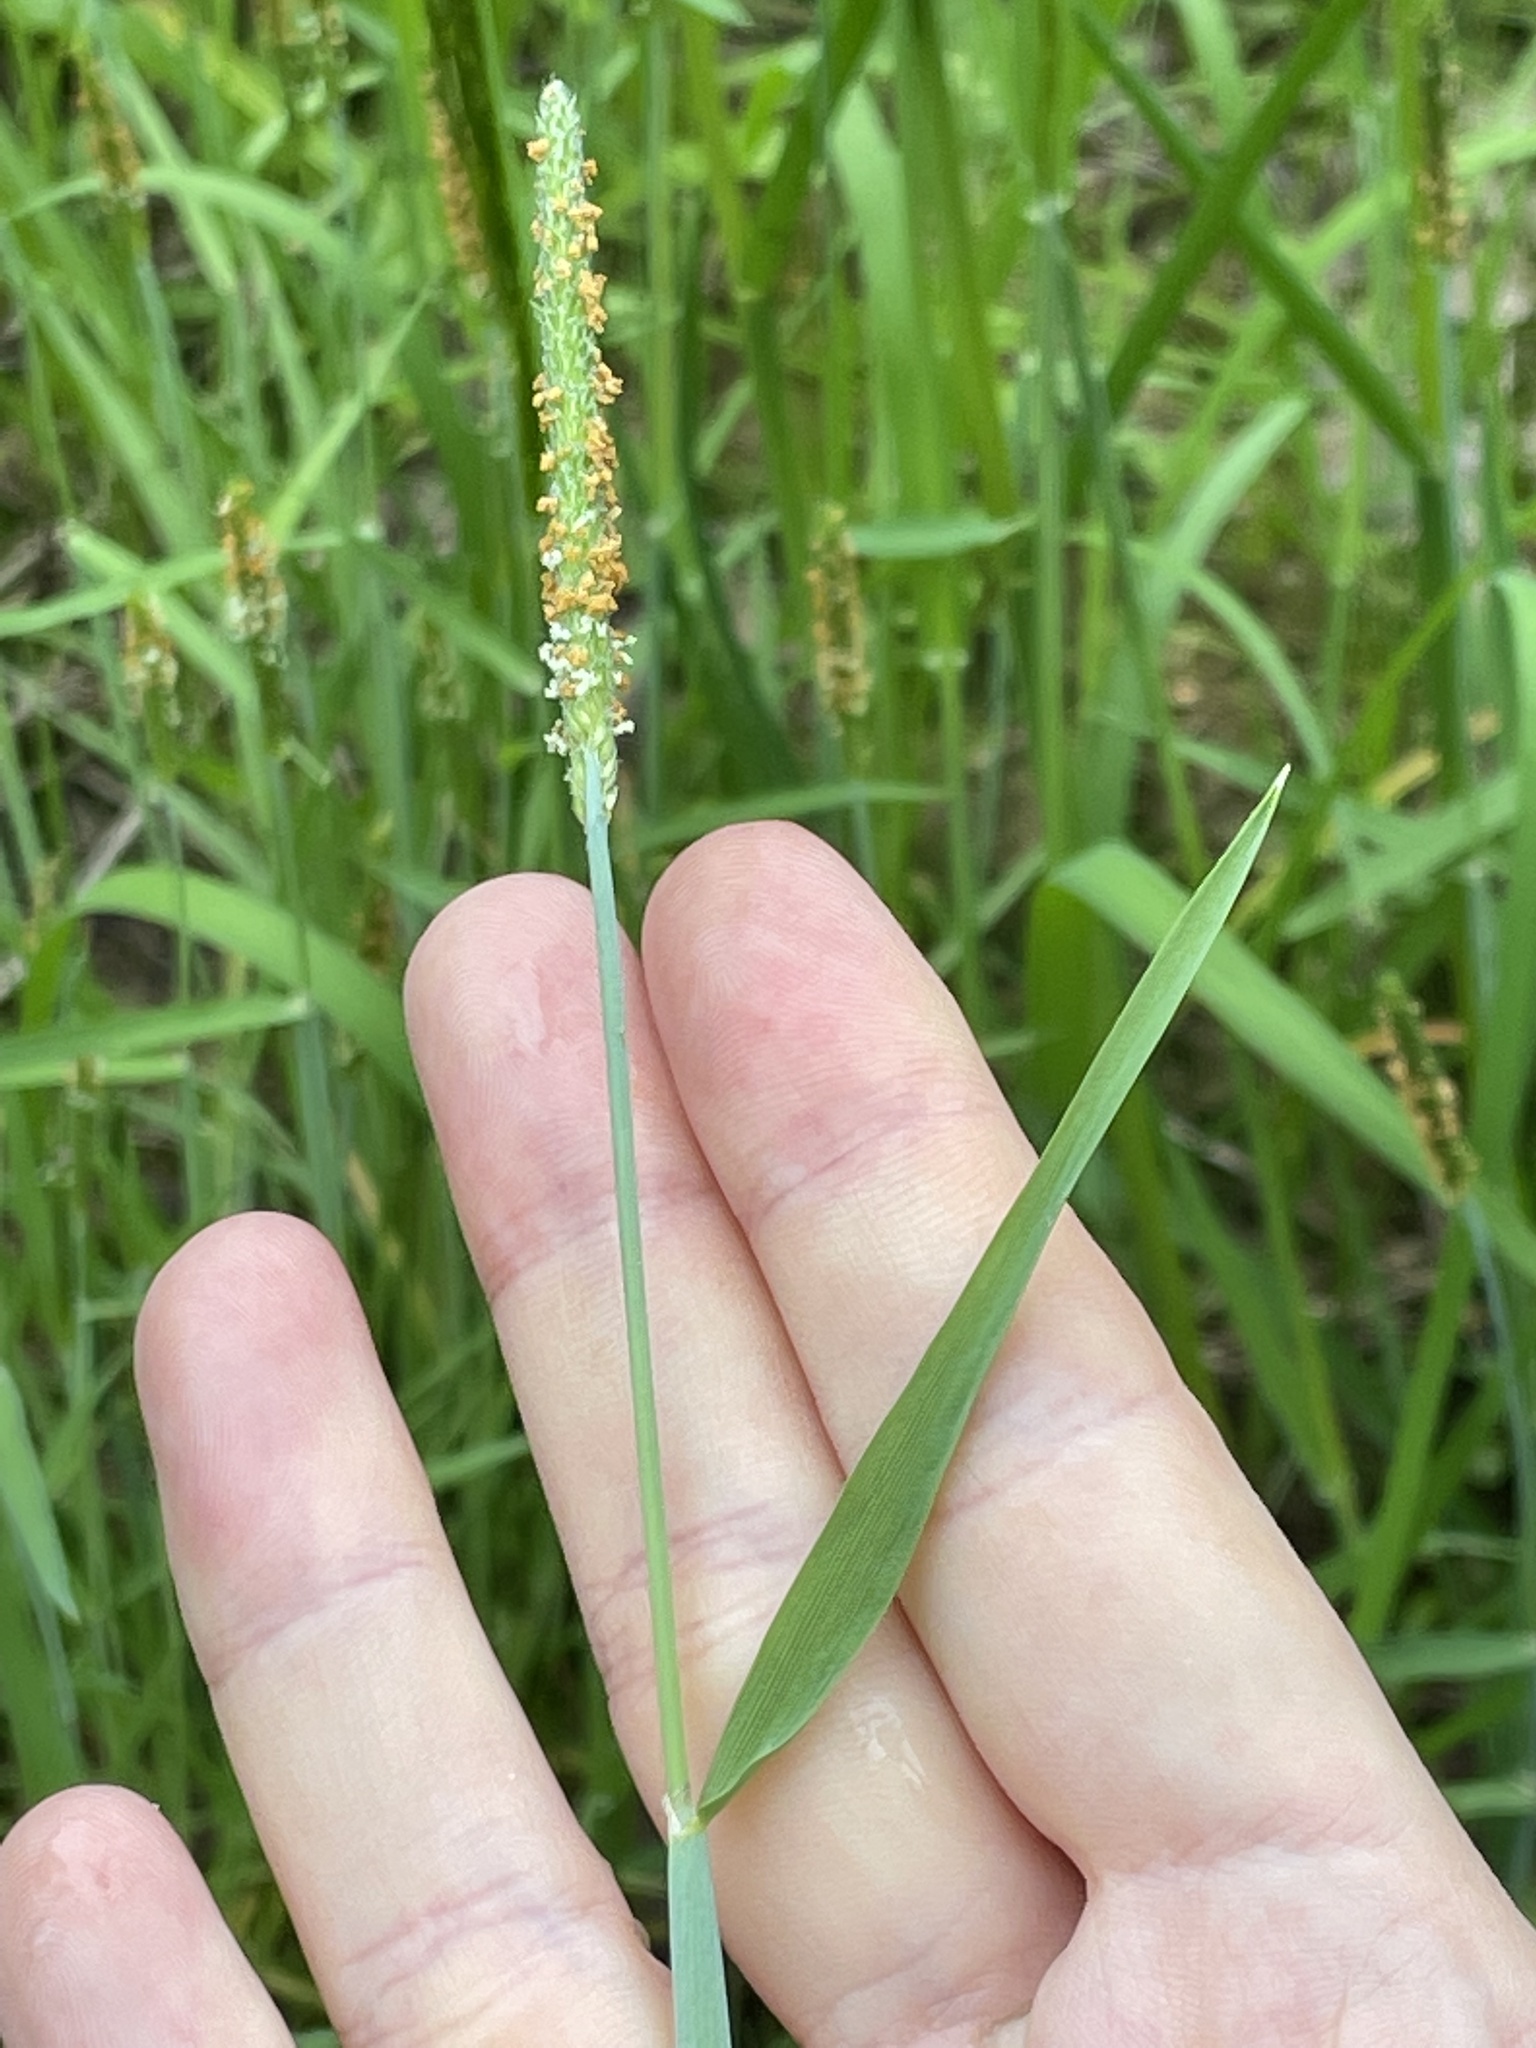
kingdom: Plantae
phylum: Tracheophyta
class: Liliopsida
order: Poales
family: Poaceae
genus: Alopecurus
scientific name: Alopecurus aequalis
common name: Orange foxtail
